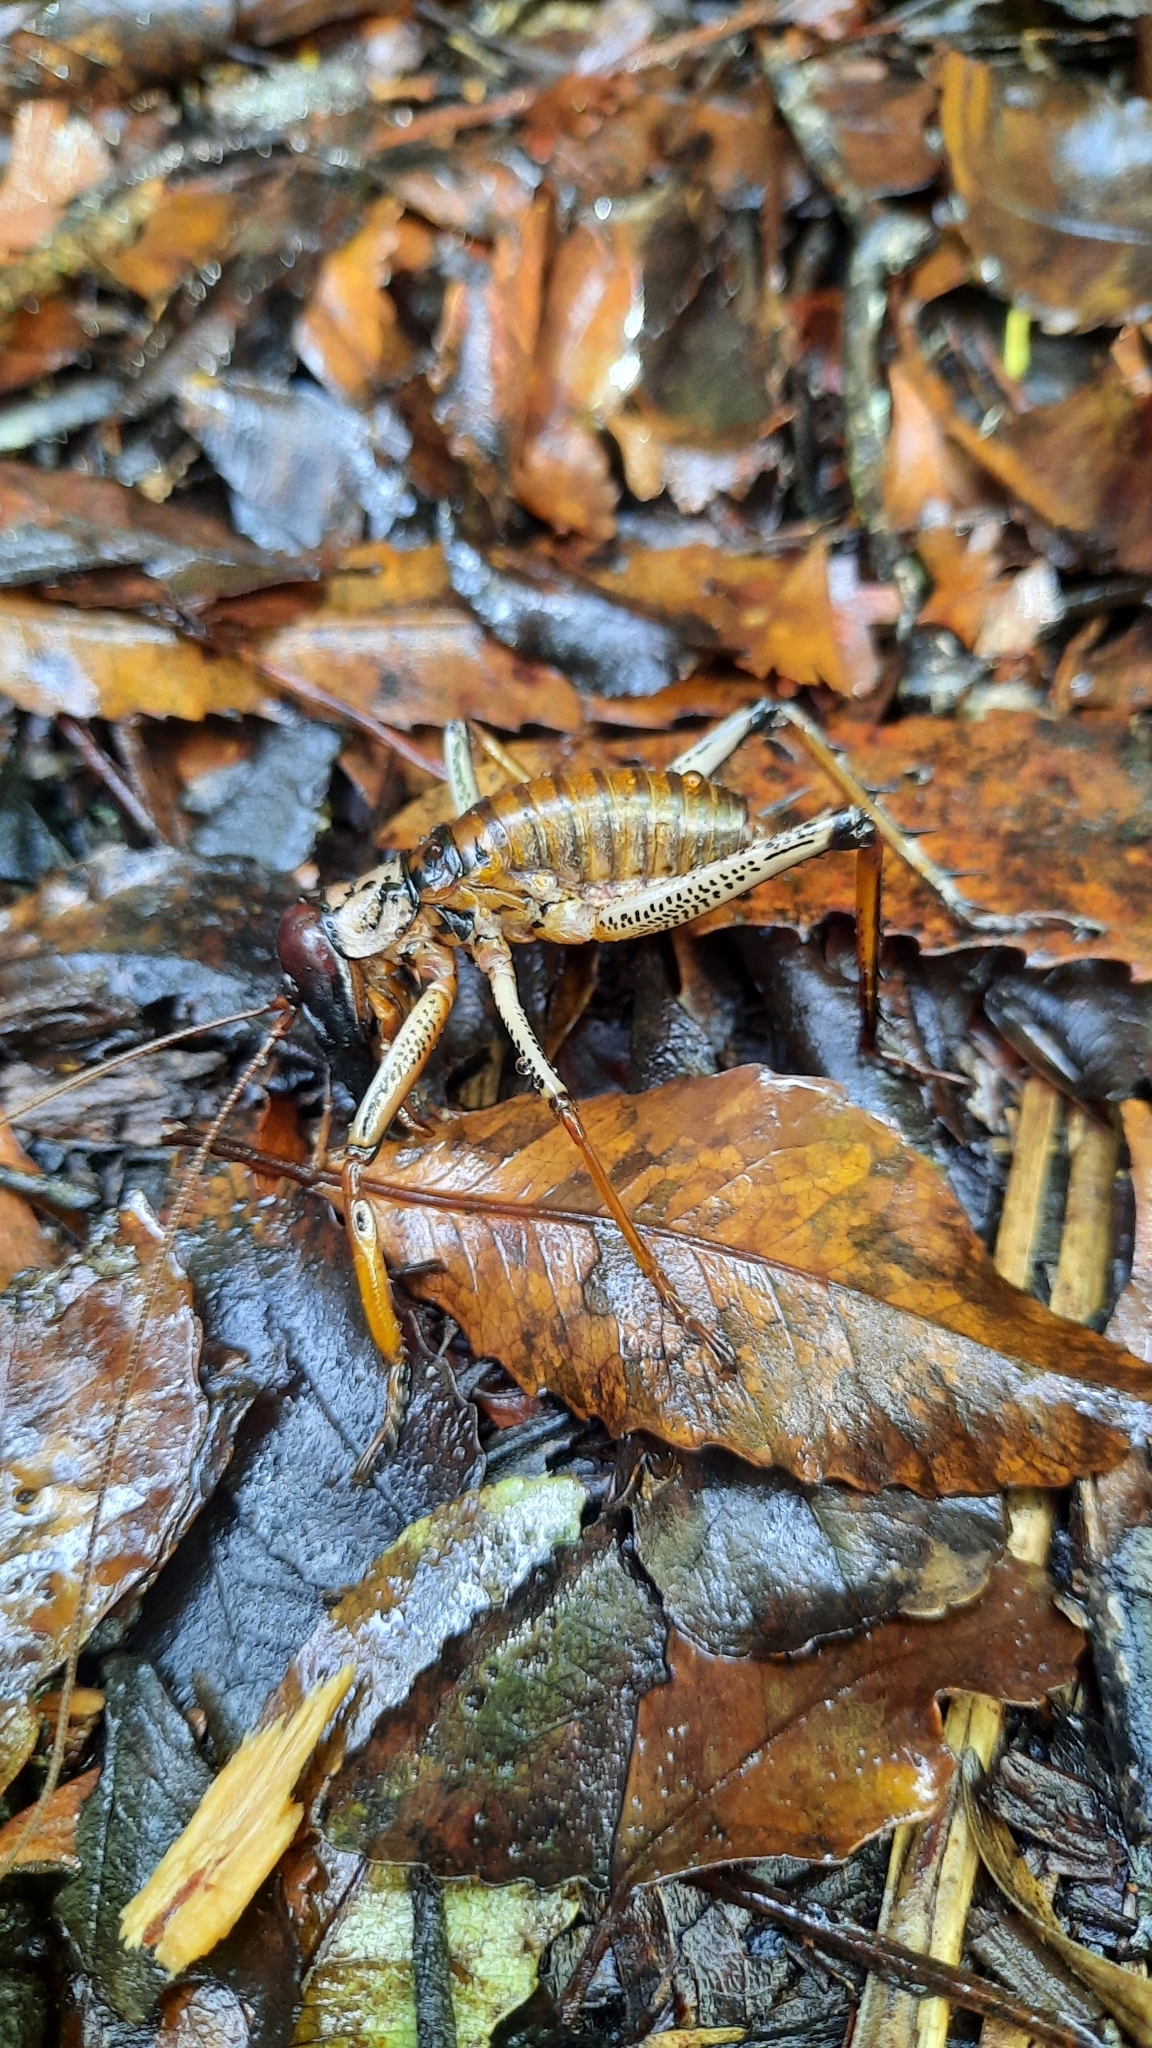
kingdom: Animalia
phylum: Arthropoda
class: Insecta
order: Orthoptera
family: Anostostomatidae
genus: Hemideina
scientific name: Hemideina thoracica
